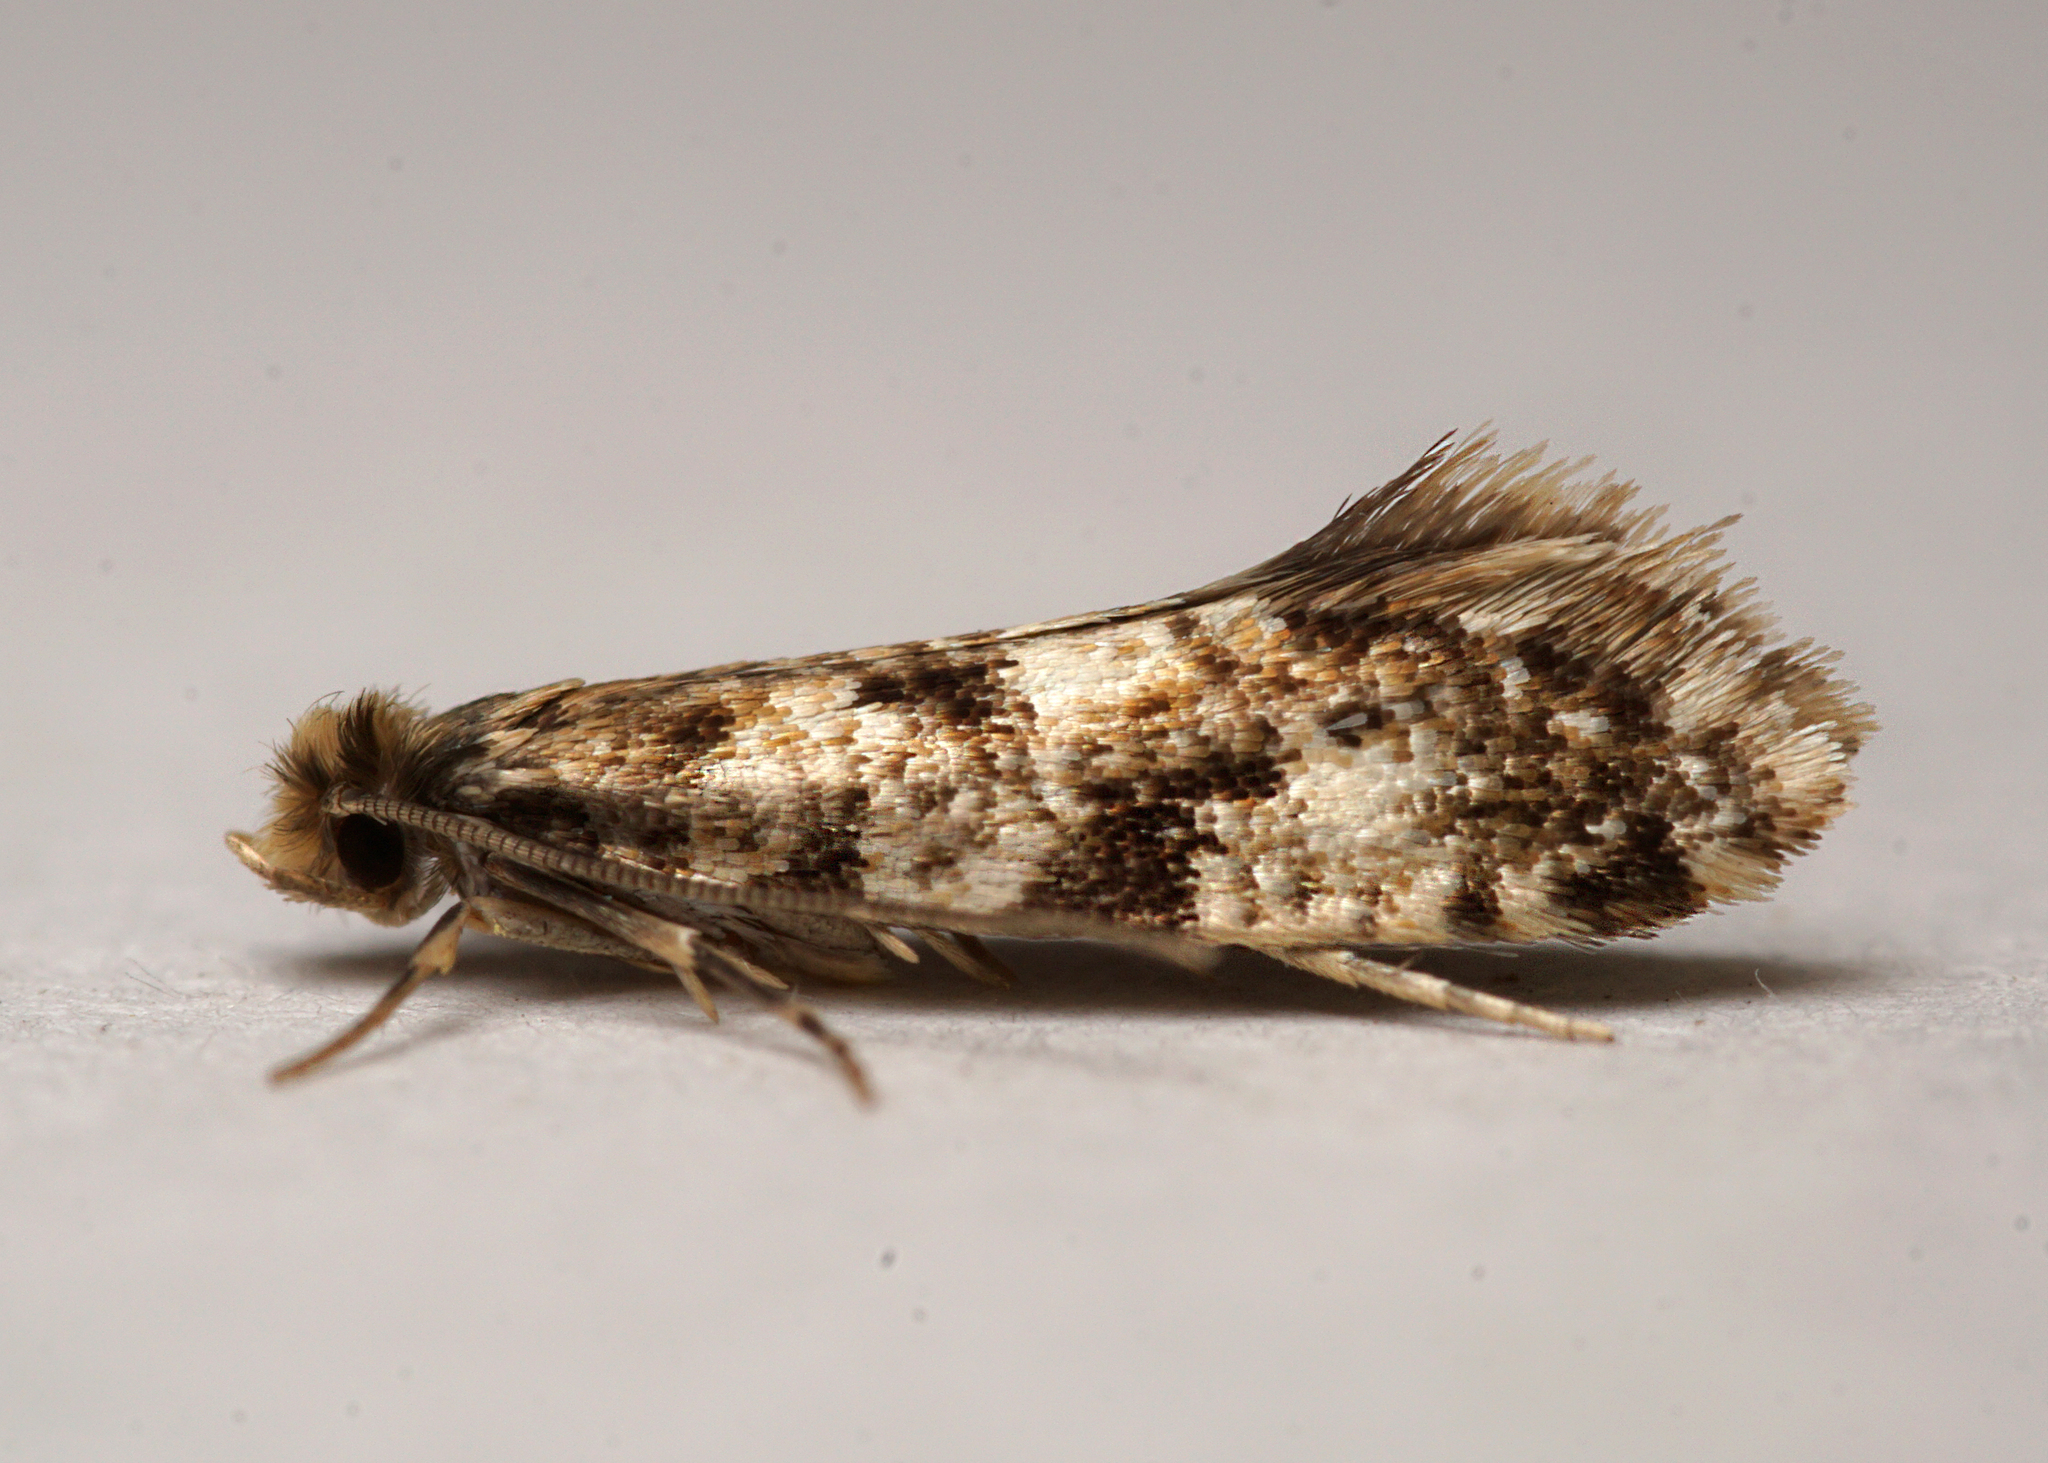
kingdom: Animalia
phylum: Arthropoda
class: Insecta
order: Lepidoptera
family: Tineidae
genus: Nemapogon
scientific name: Nemapogon cloacella
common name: Cork moth
